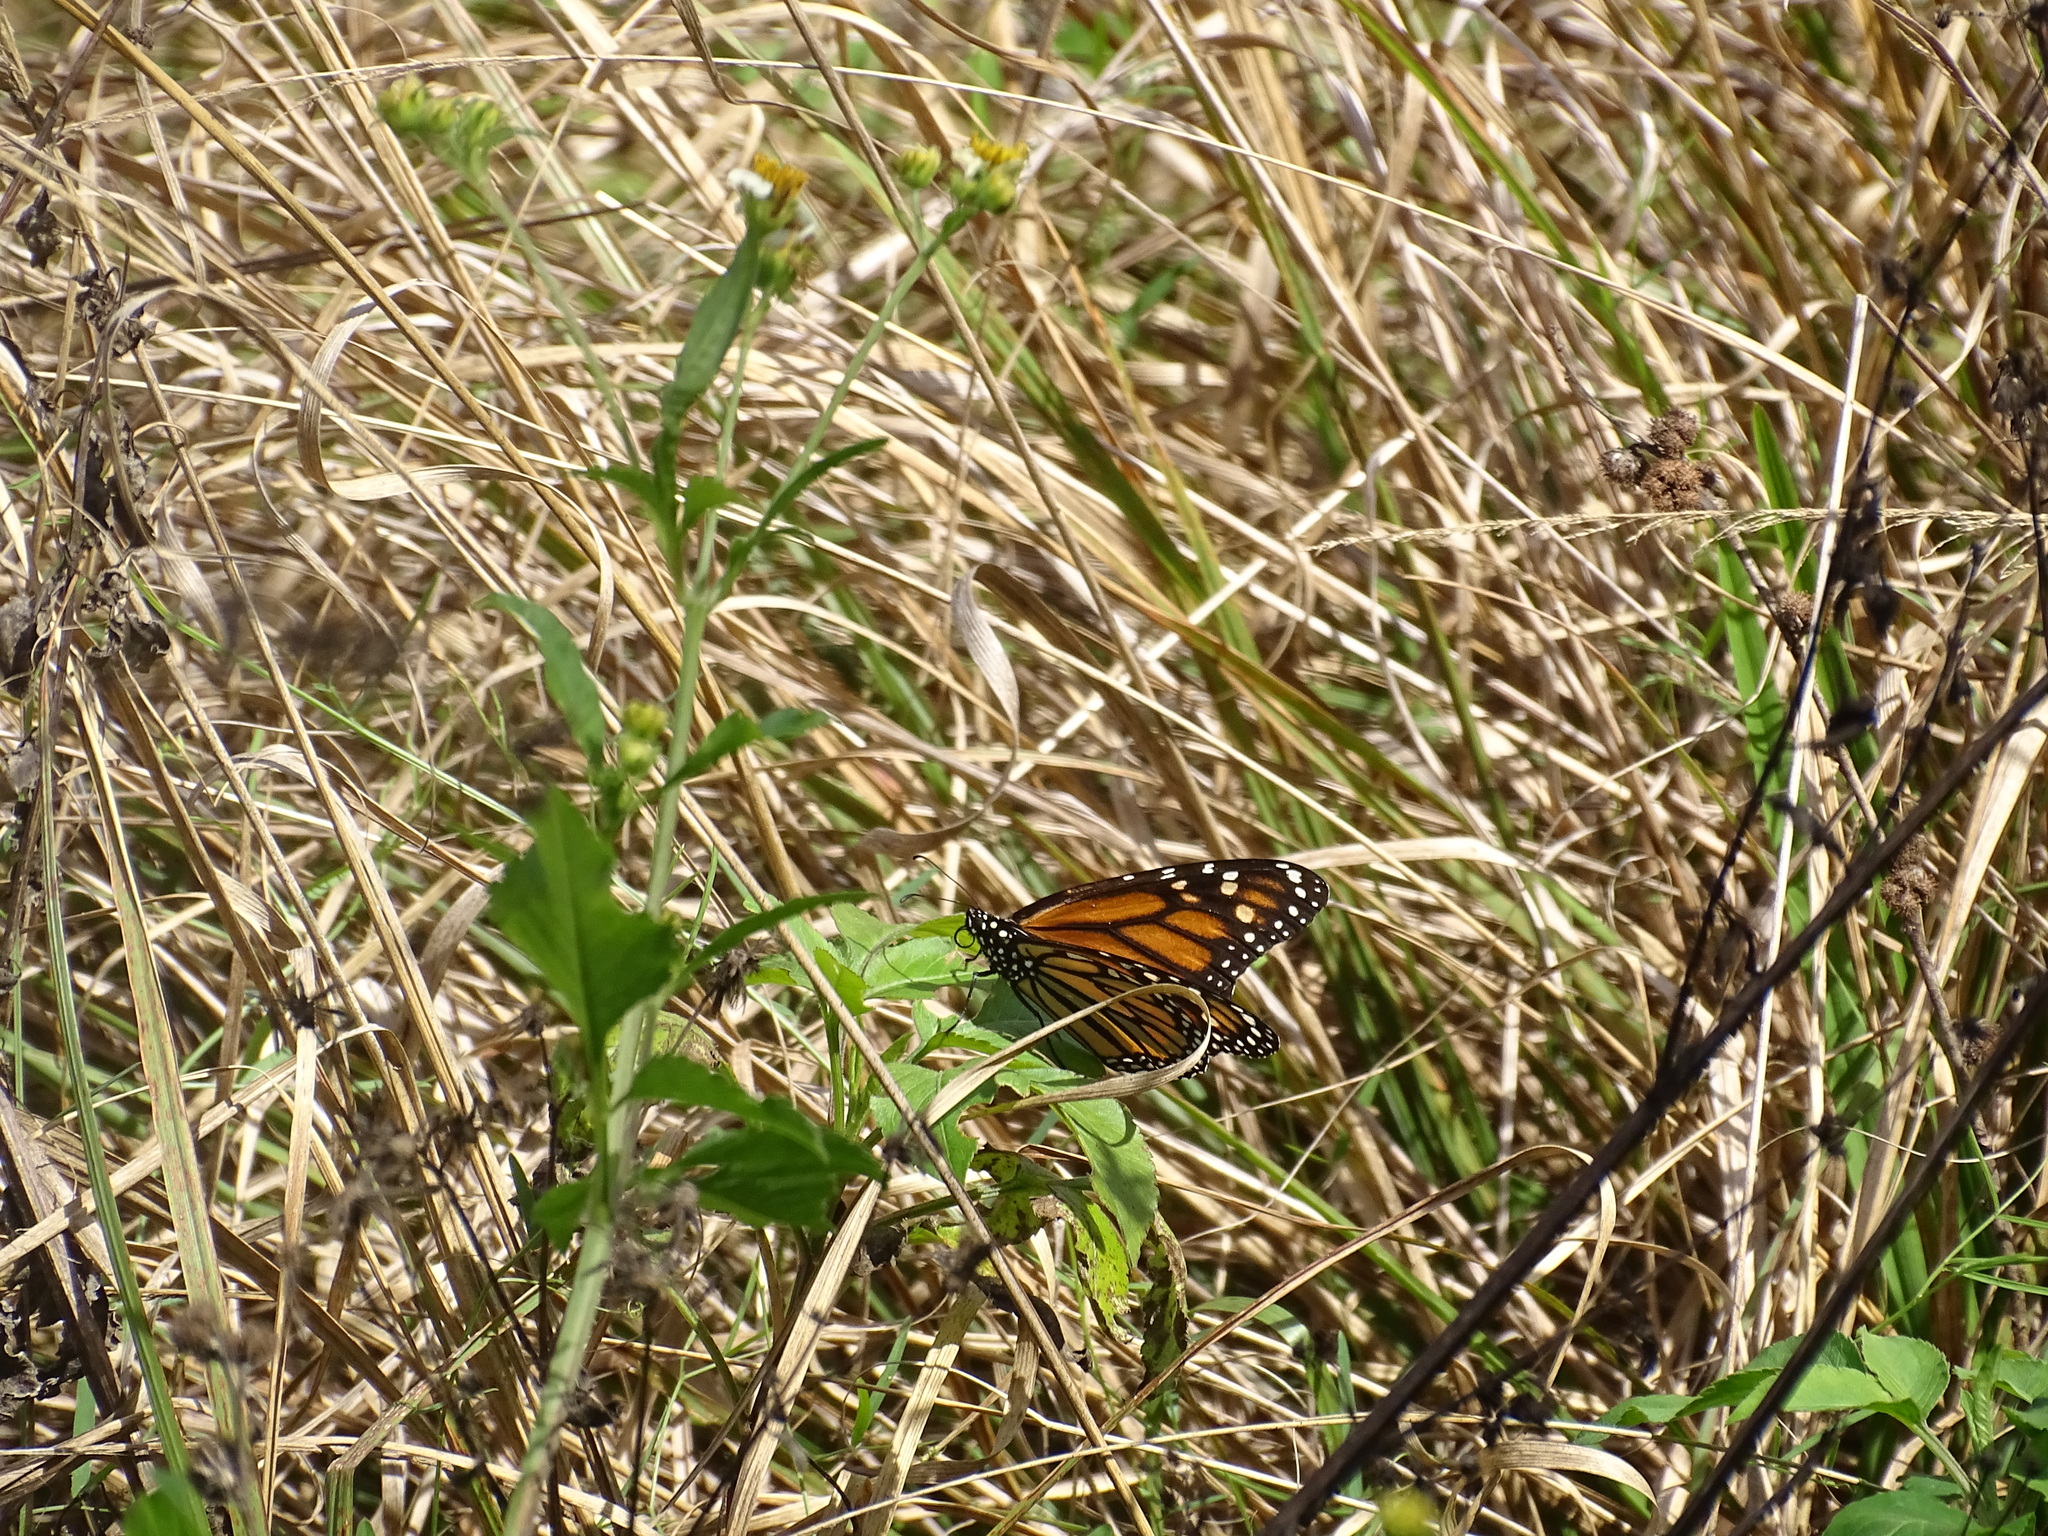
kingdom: Animalia
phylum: Arthropoda
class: Insecta
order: Lepidoptera
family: Nymphalidae
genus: Danaus
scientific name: Danaus plexippus
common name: Monarch
